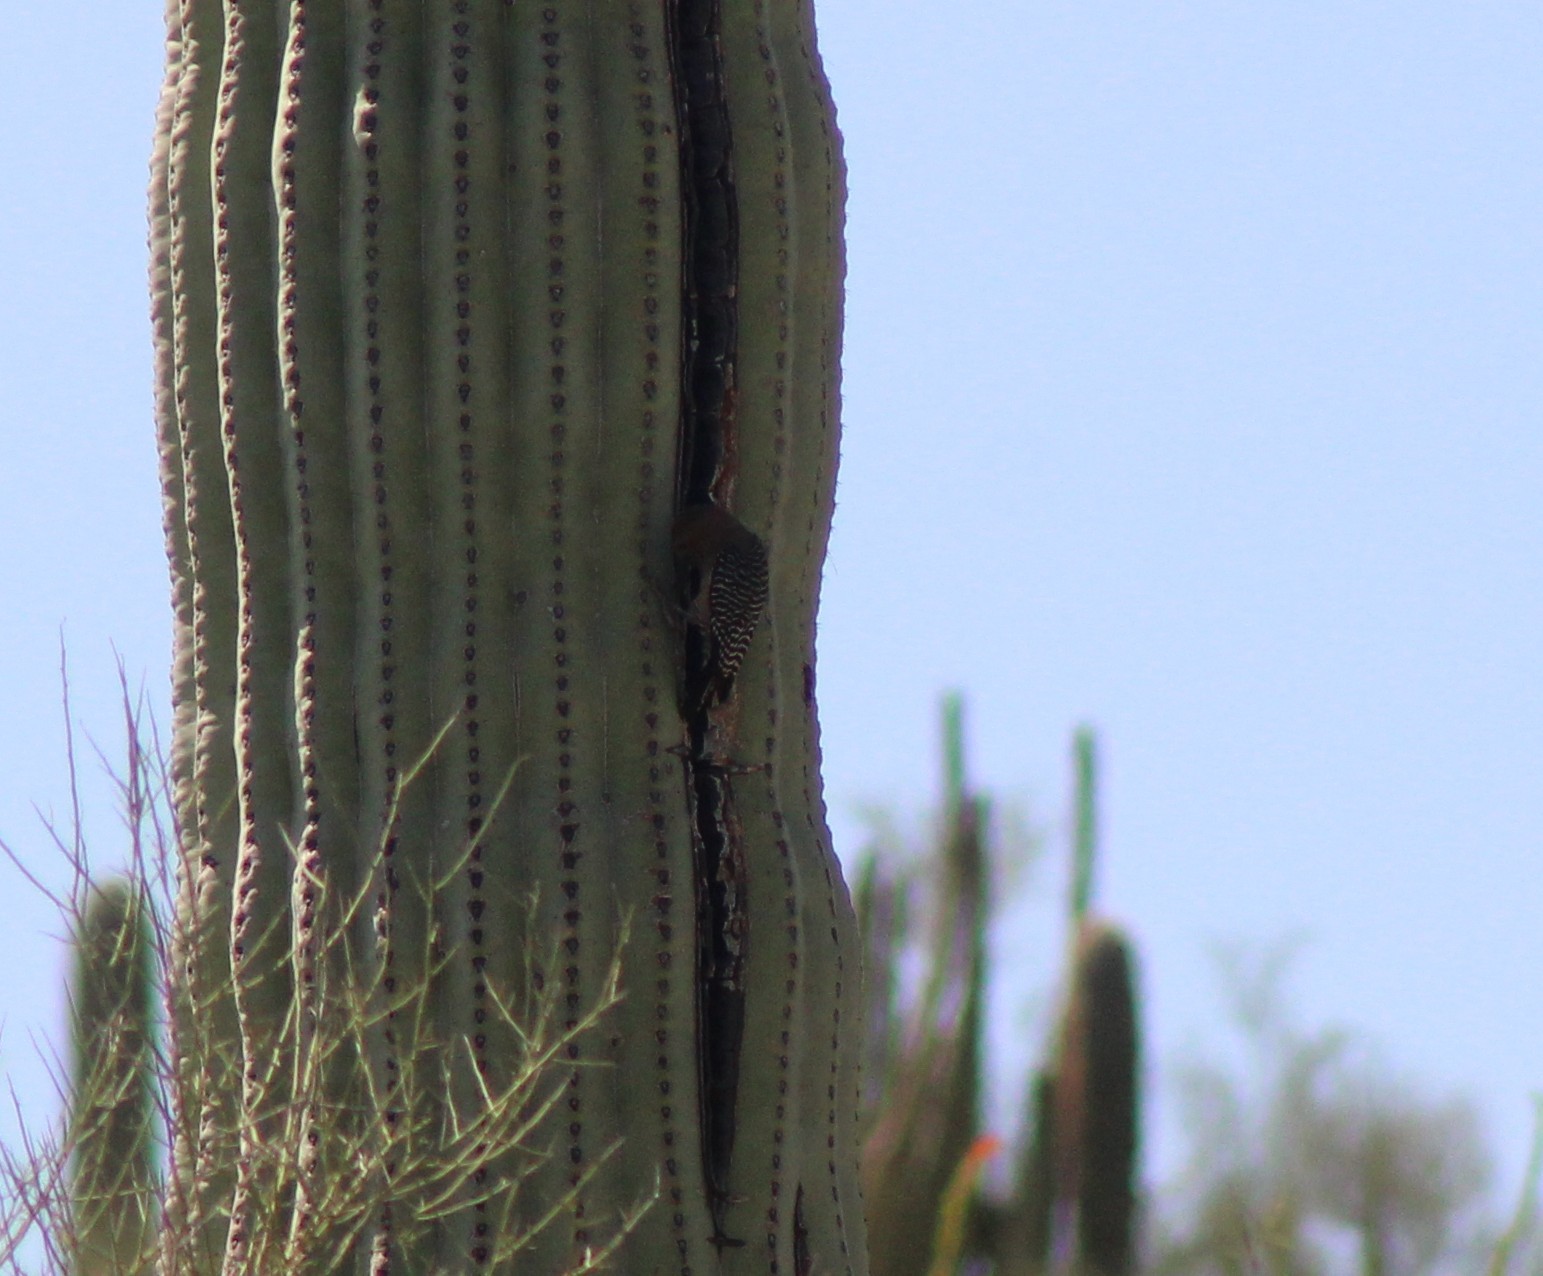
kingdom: Animalia
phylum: Chordata
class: Aves
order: Piciformes
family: Picidae
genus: Melanerpes
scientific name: Melanerpes uropygialis
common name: Gila woodpecker
